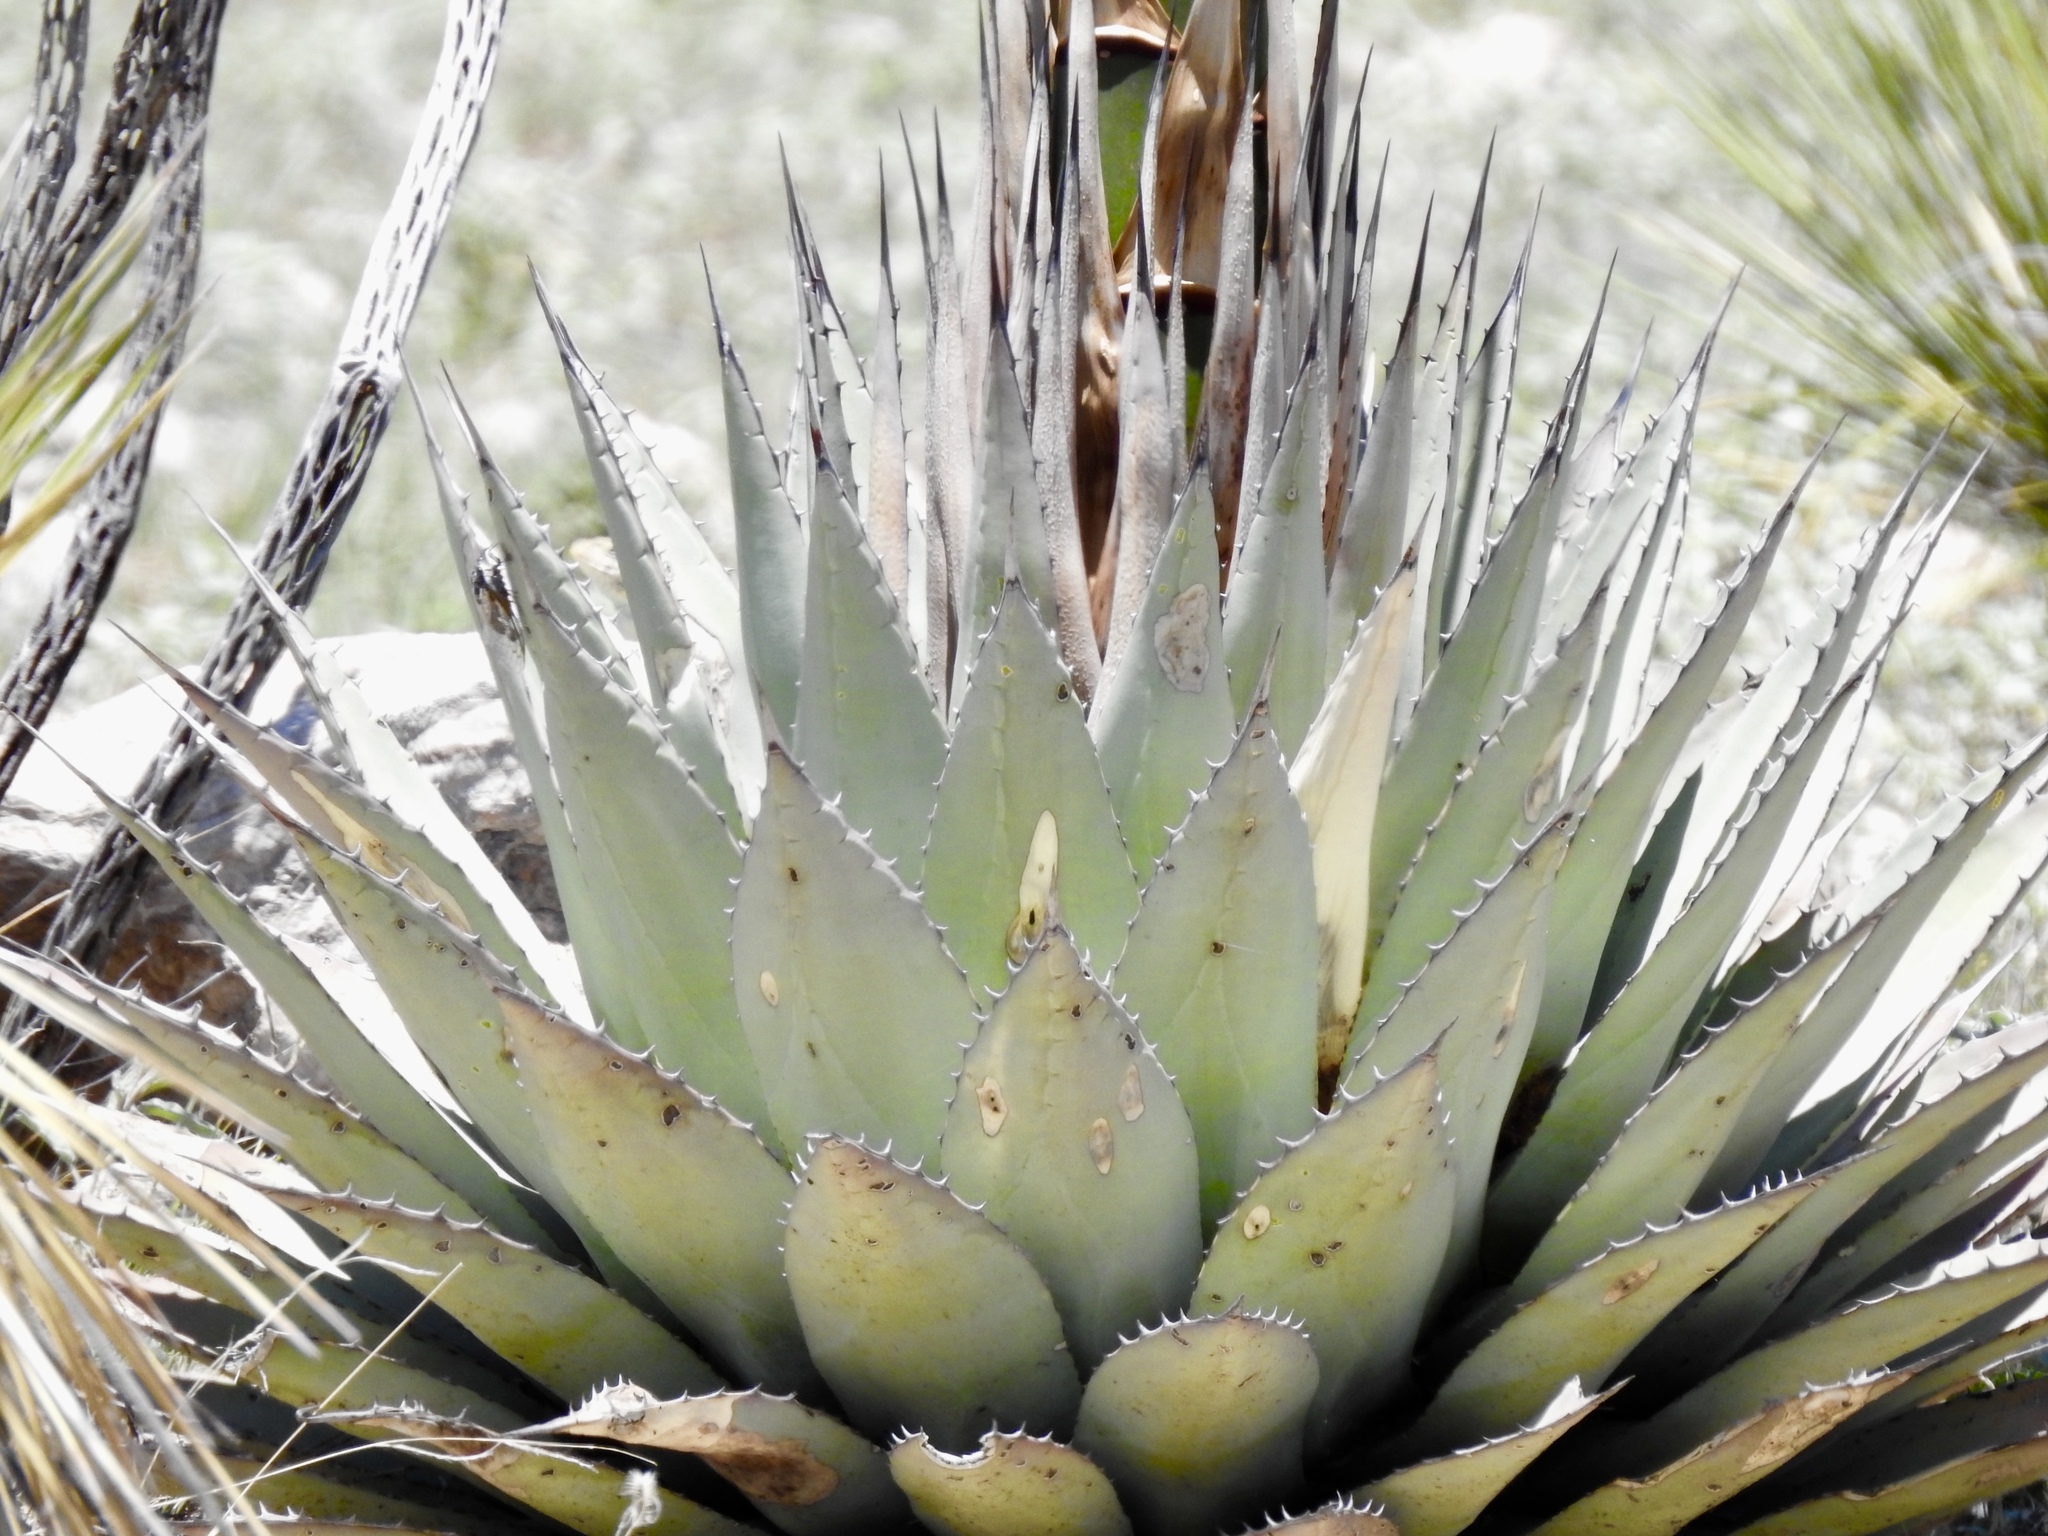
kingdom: Plantae
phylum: Tracheophyta
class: Liliopsida
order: Asparagales
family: Asparagaceae
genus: Agave
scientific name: Agave parryi
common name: Parry's agave
